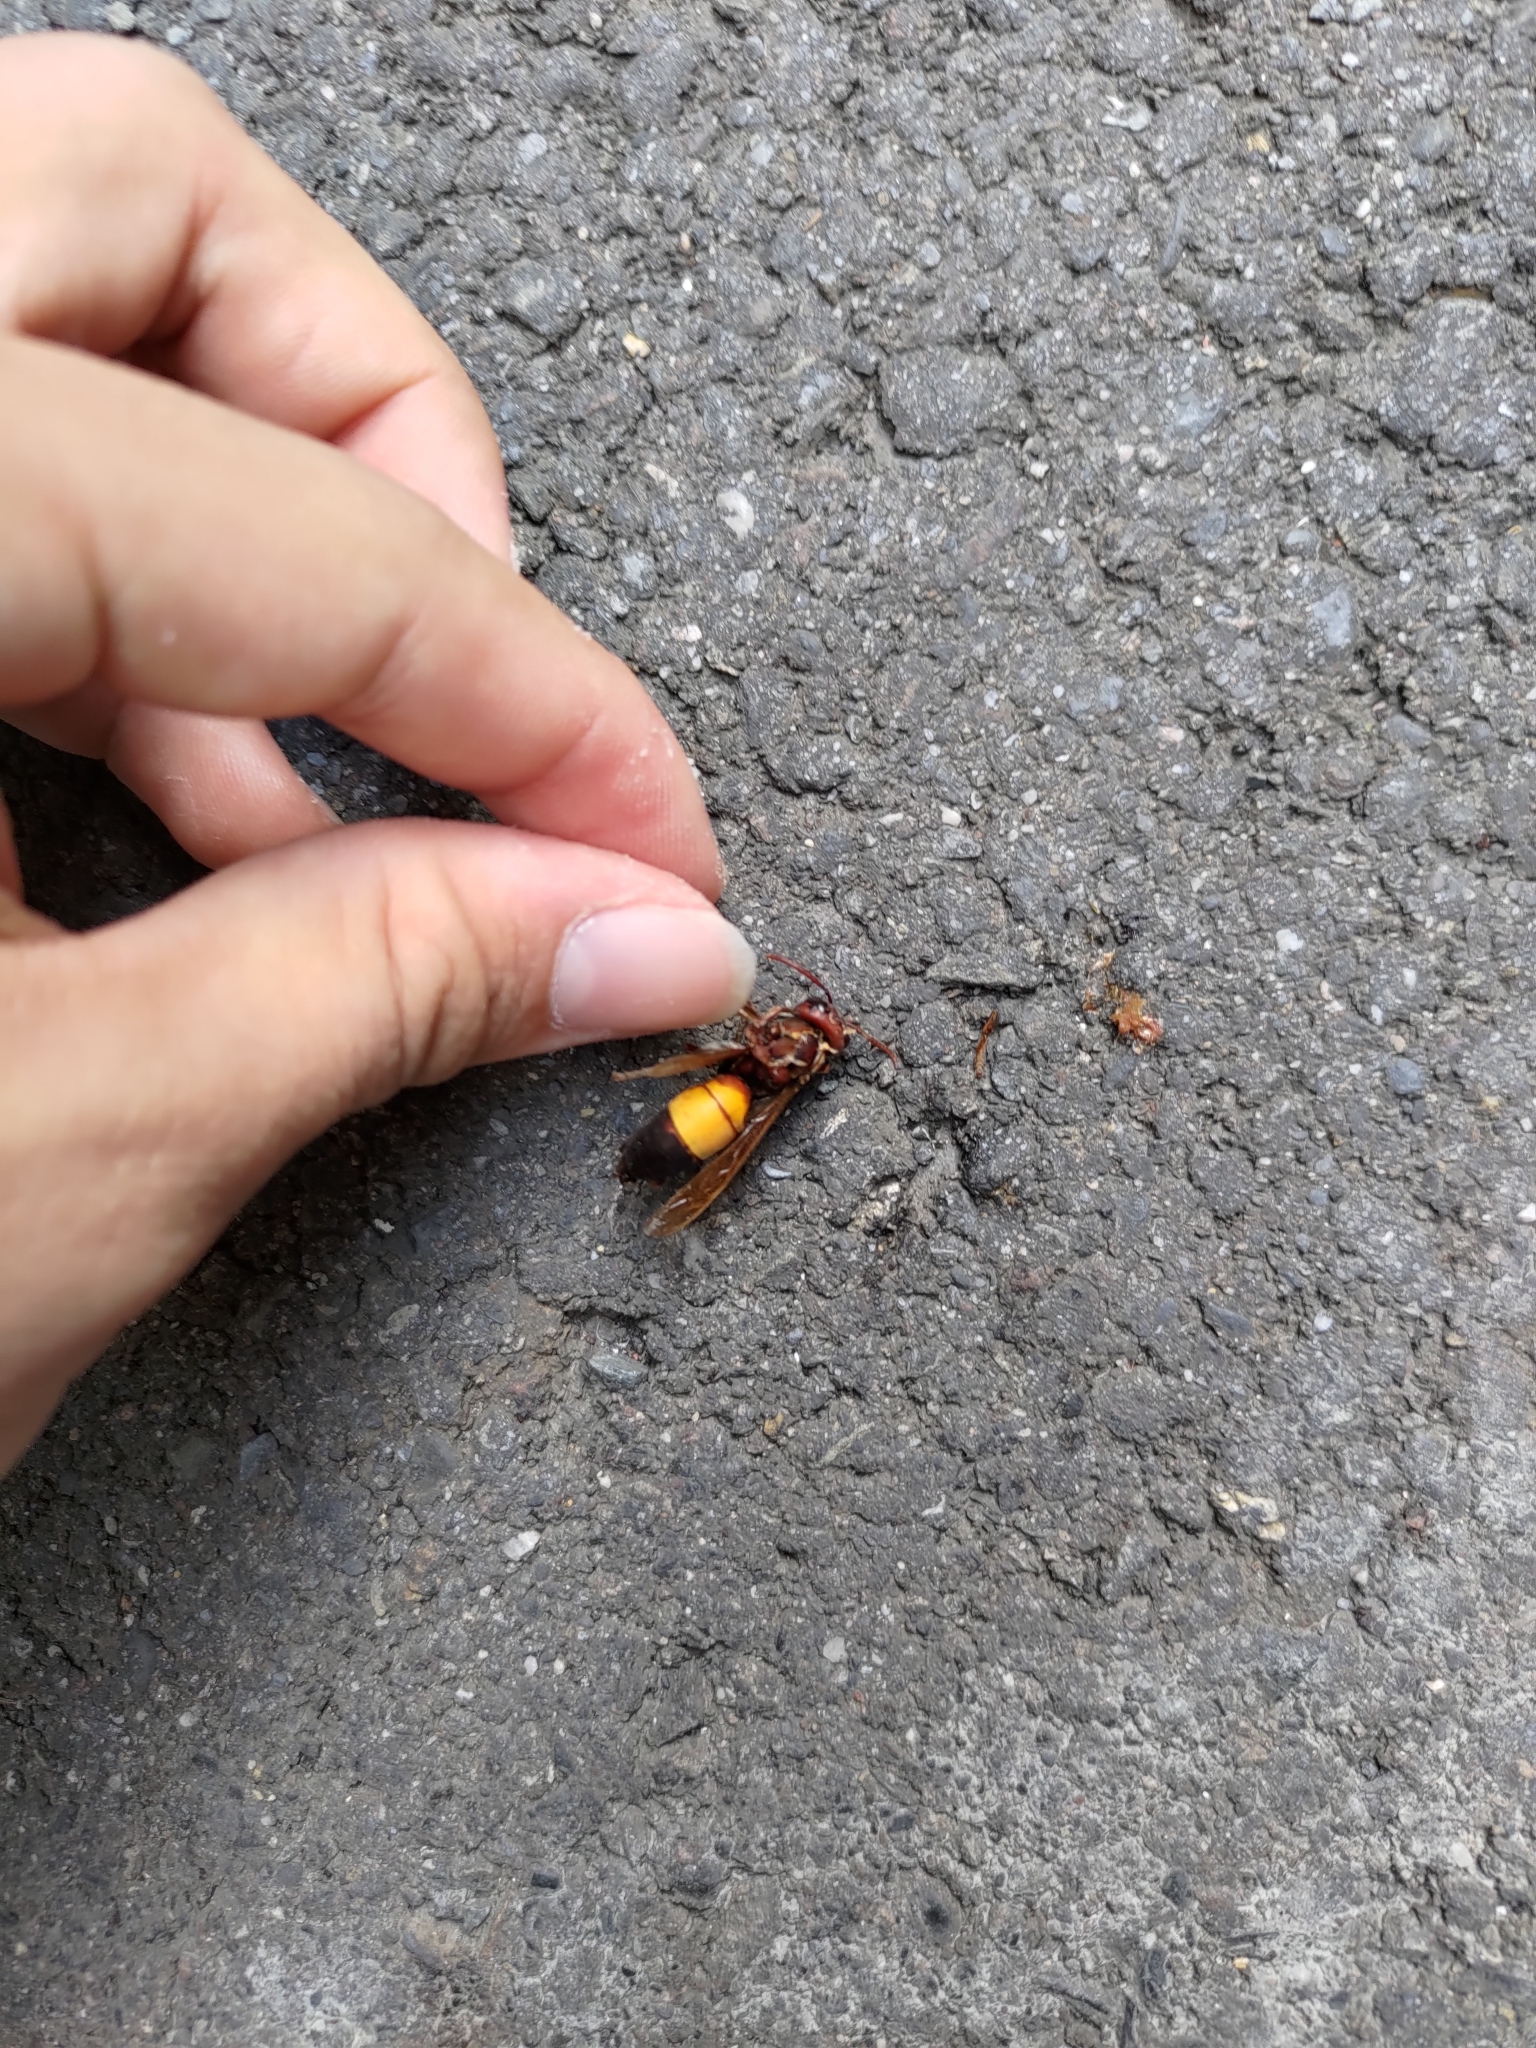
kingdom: Animalia
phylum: Arthropoda
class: Insecta
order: Hymenoptera
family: Vespidae
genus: Vespa
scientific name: Vespa affinis
